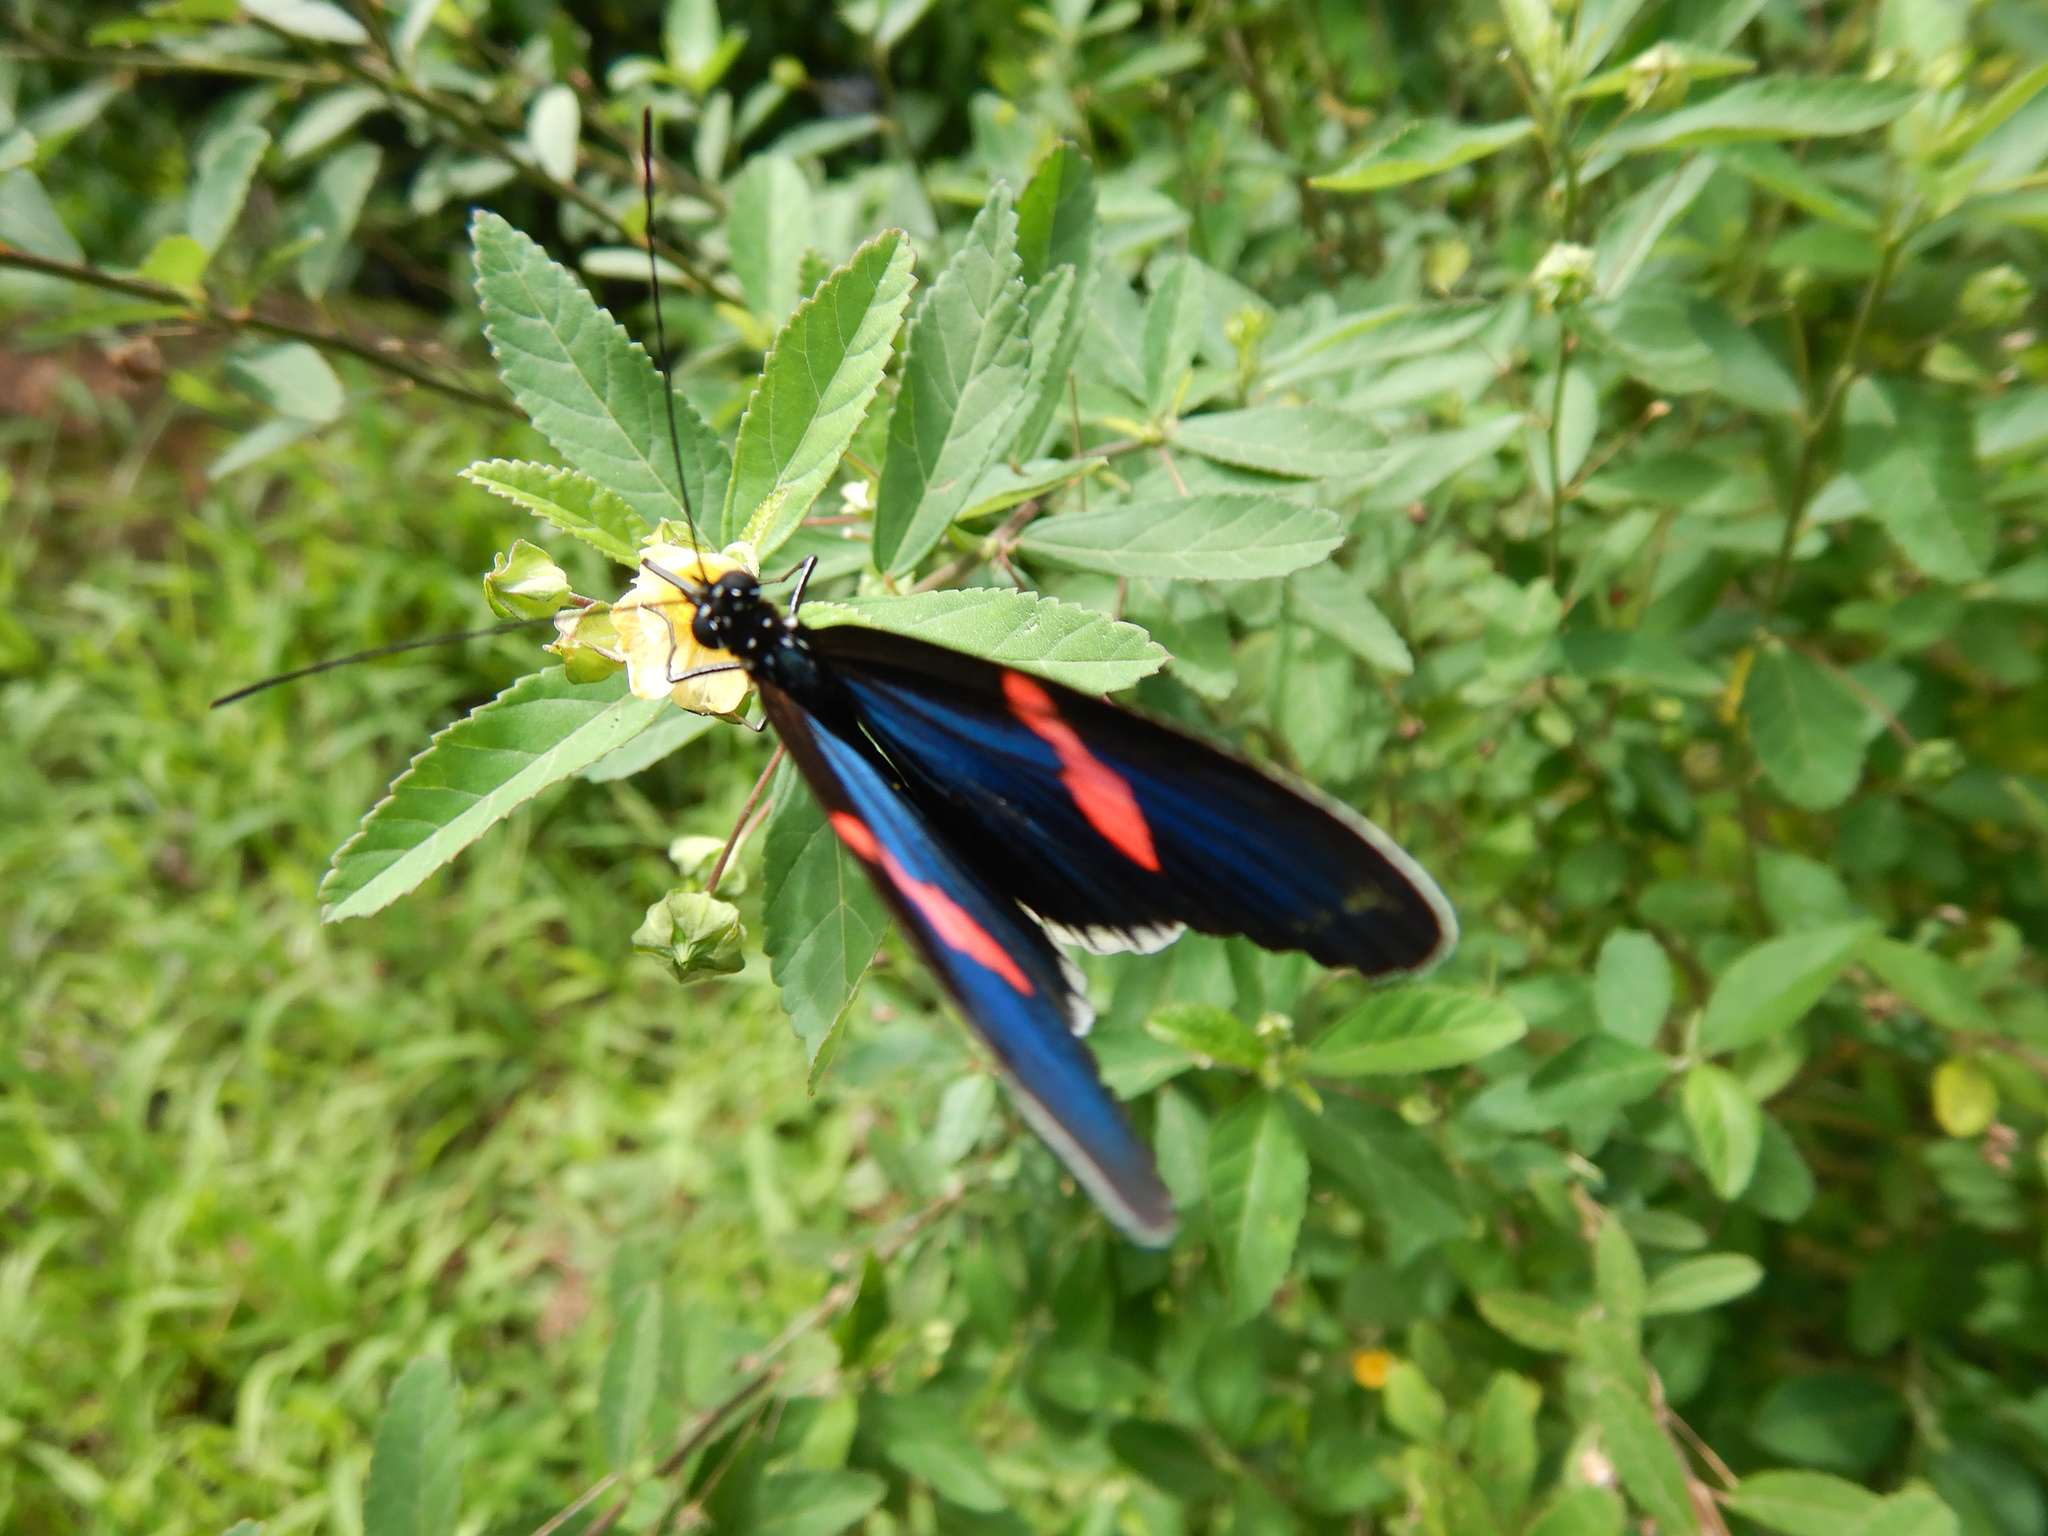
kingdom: Animalia
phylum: Arthropoda
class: Insecta
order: Lepidoptera
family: Nymphalidae
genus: Heliconius
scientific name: Heliconius erato
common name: Common patch longwing
